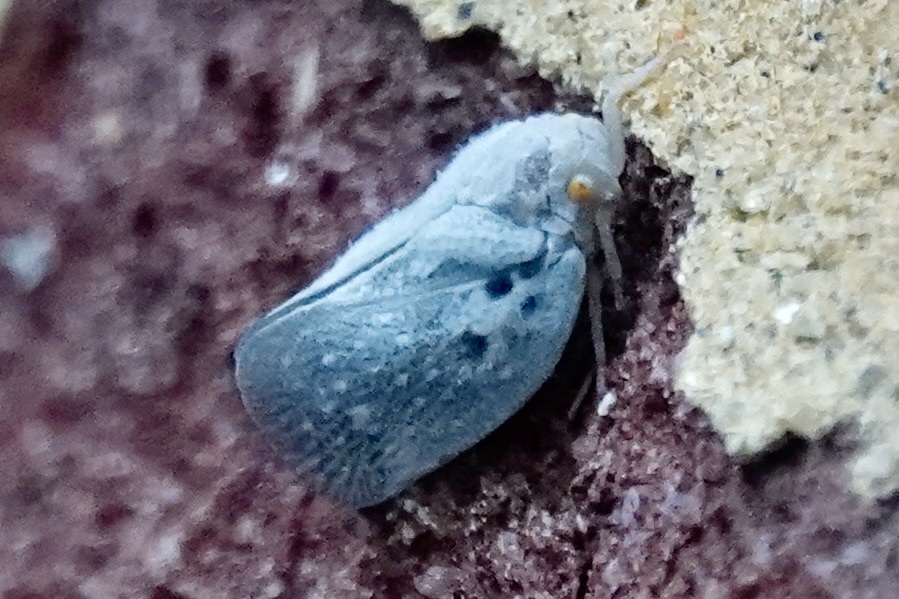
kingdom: Animalia
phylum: Arthropoda
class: Insecta
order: Hemiptera
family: Flatidae
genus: Metcalfa
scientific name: Metcalfa pruinosa
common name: Citrus flatid planthopper
